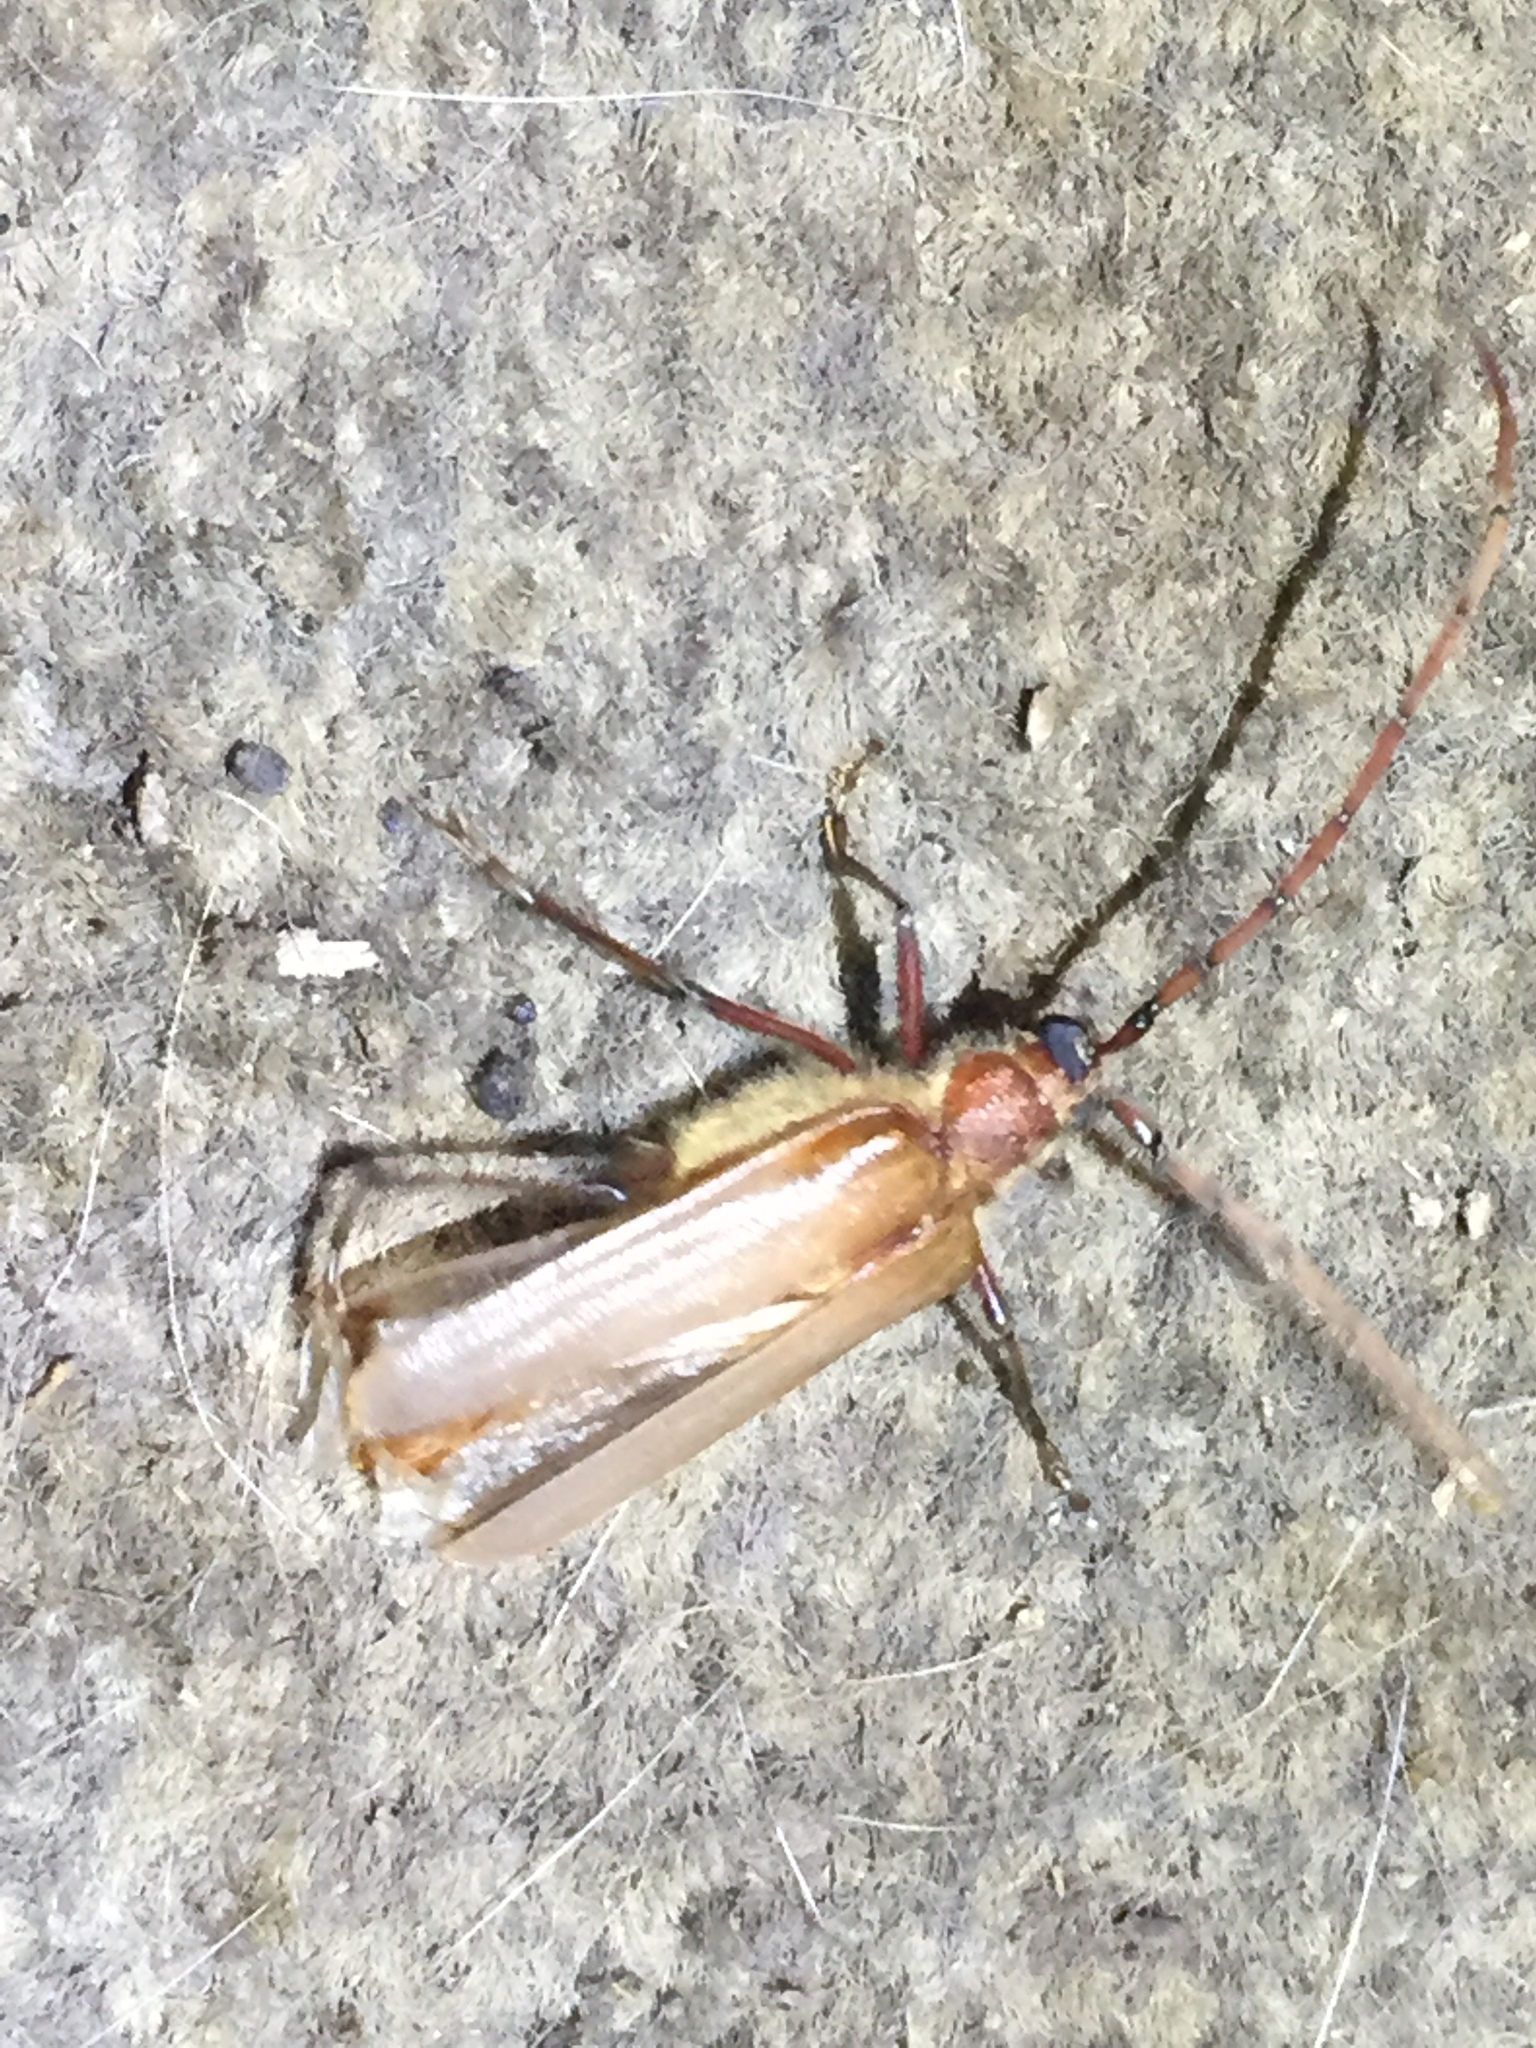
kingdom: Animalia
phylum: Arthropoda
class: Insecta
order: Coleoptera
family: Cerambycidae
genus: Ochrocydus
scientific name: Ochrocydus huttoni
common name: Kanuka longhorn
